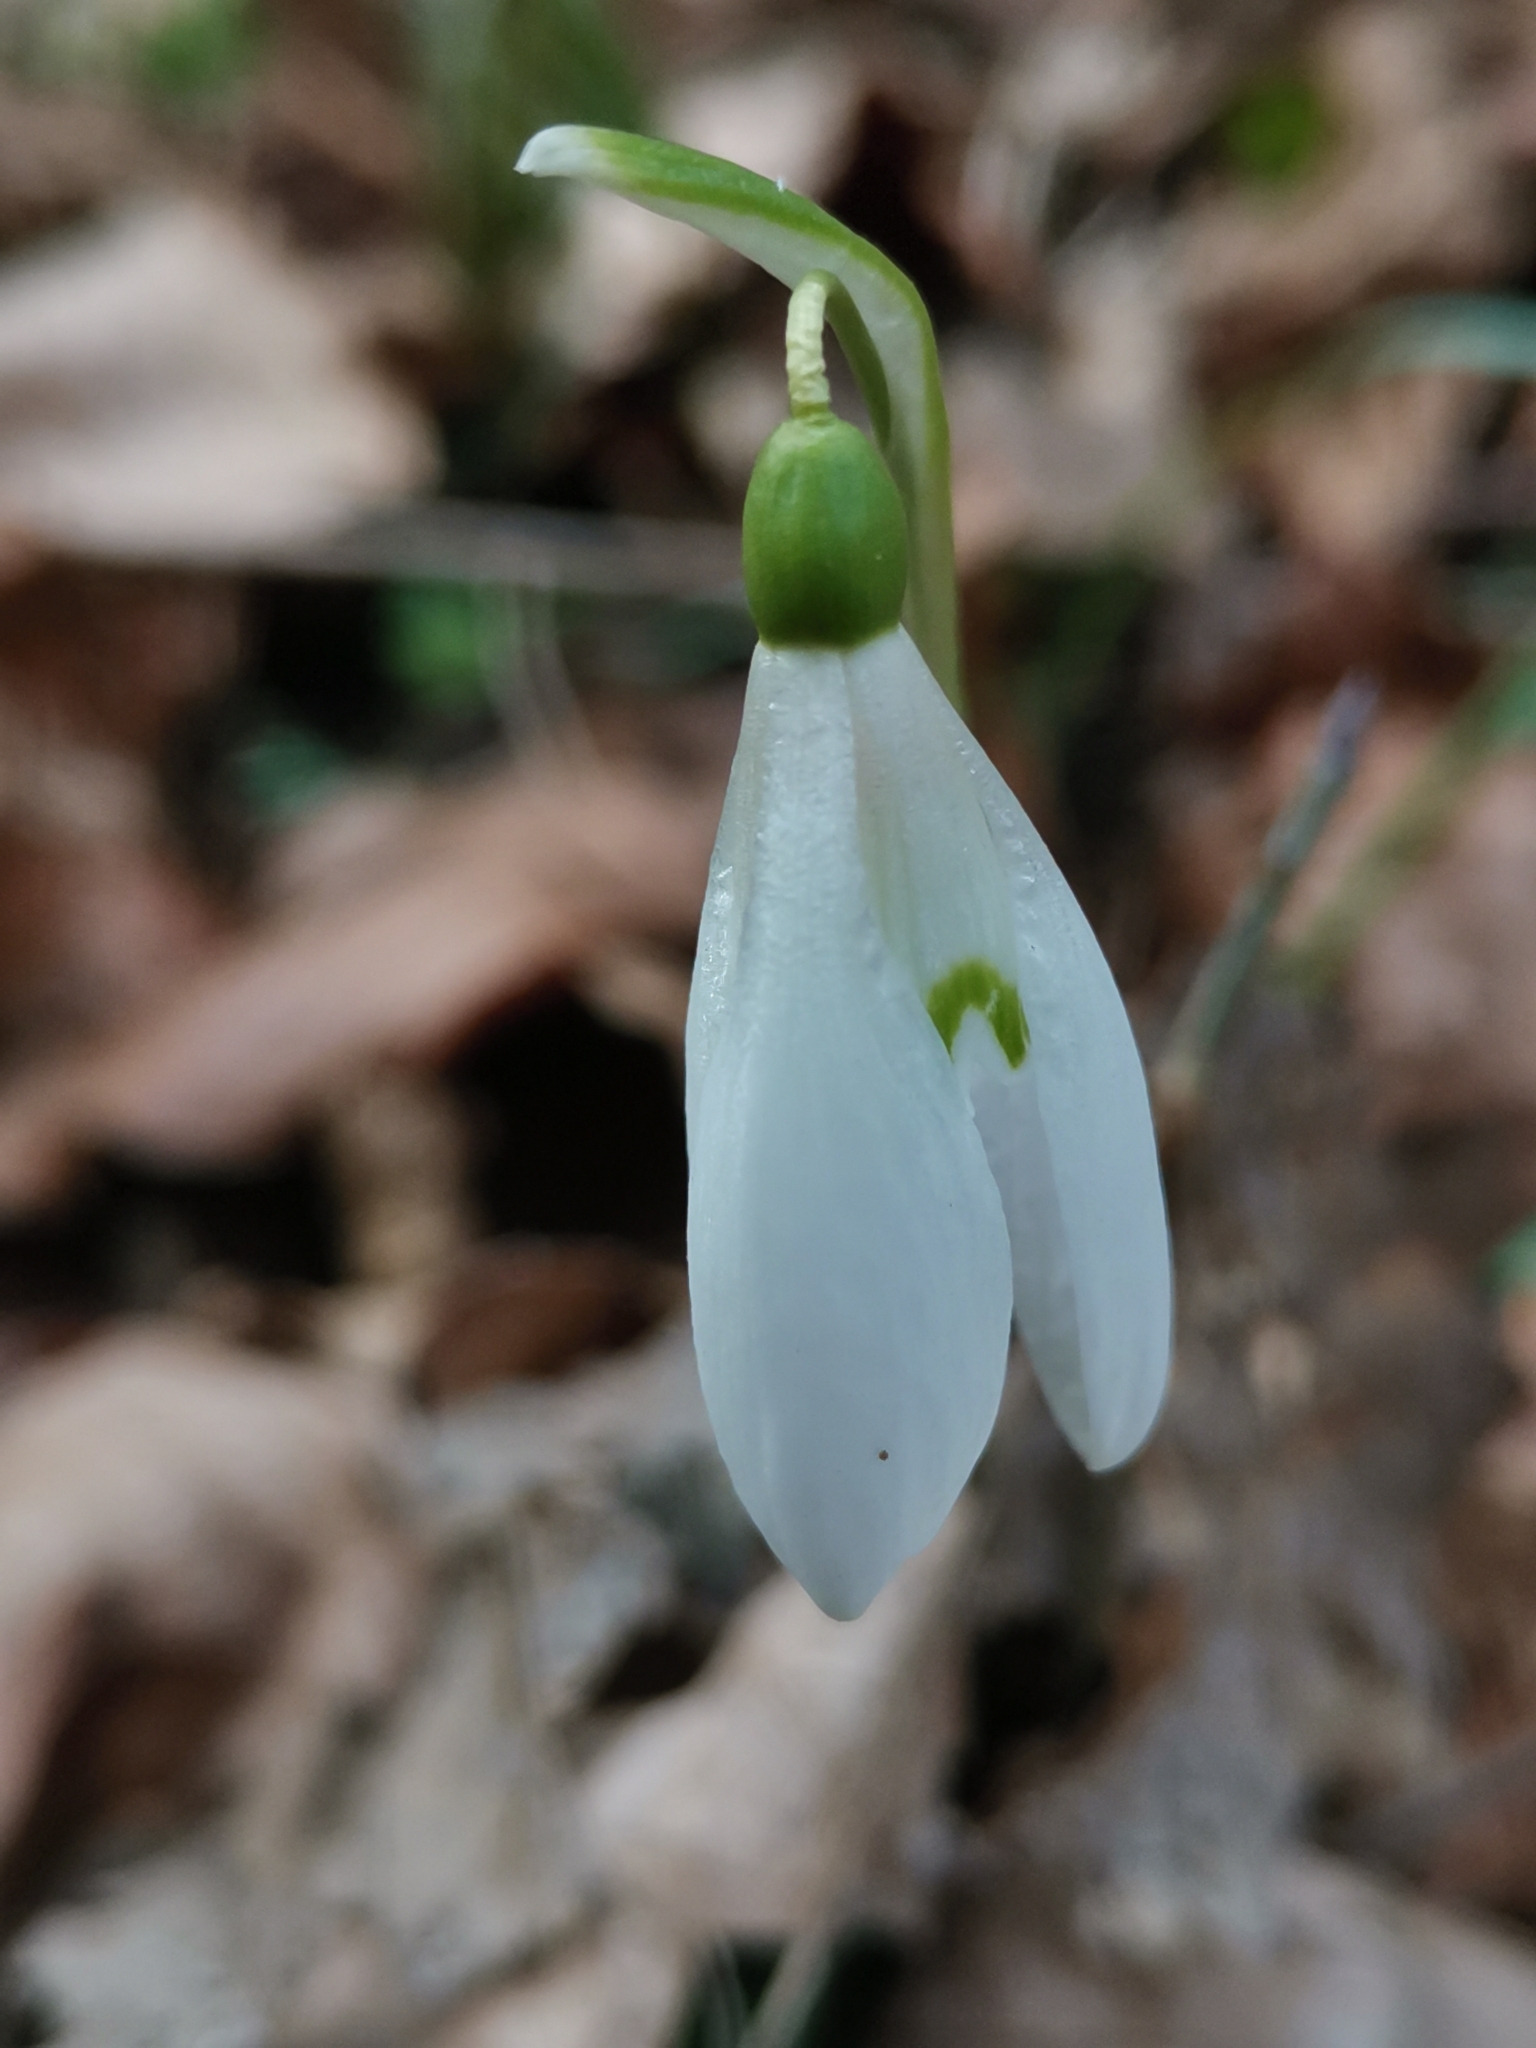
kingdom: Plantae
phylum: Tracheophyta
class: Liliopsida
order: Asparagales
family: Amaryllidaceae
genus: Galanthus
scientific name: Galanthus nivalis
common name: Snowdrop
